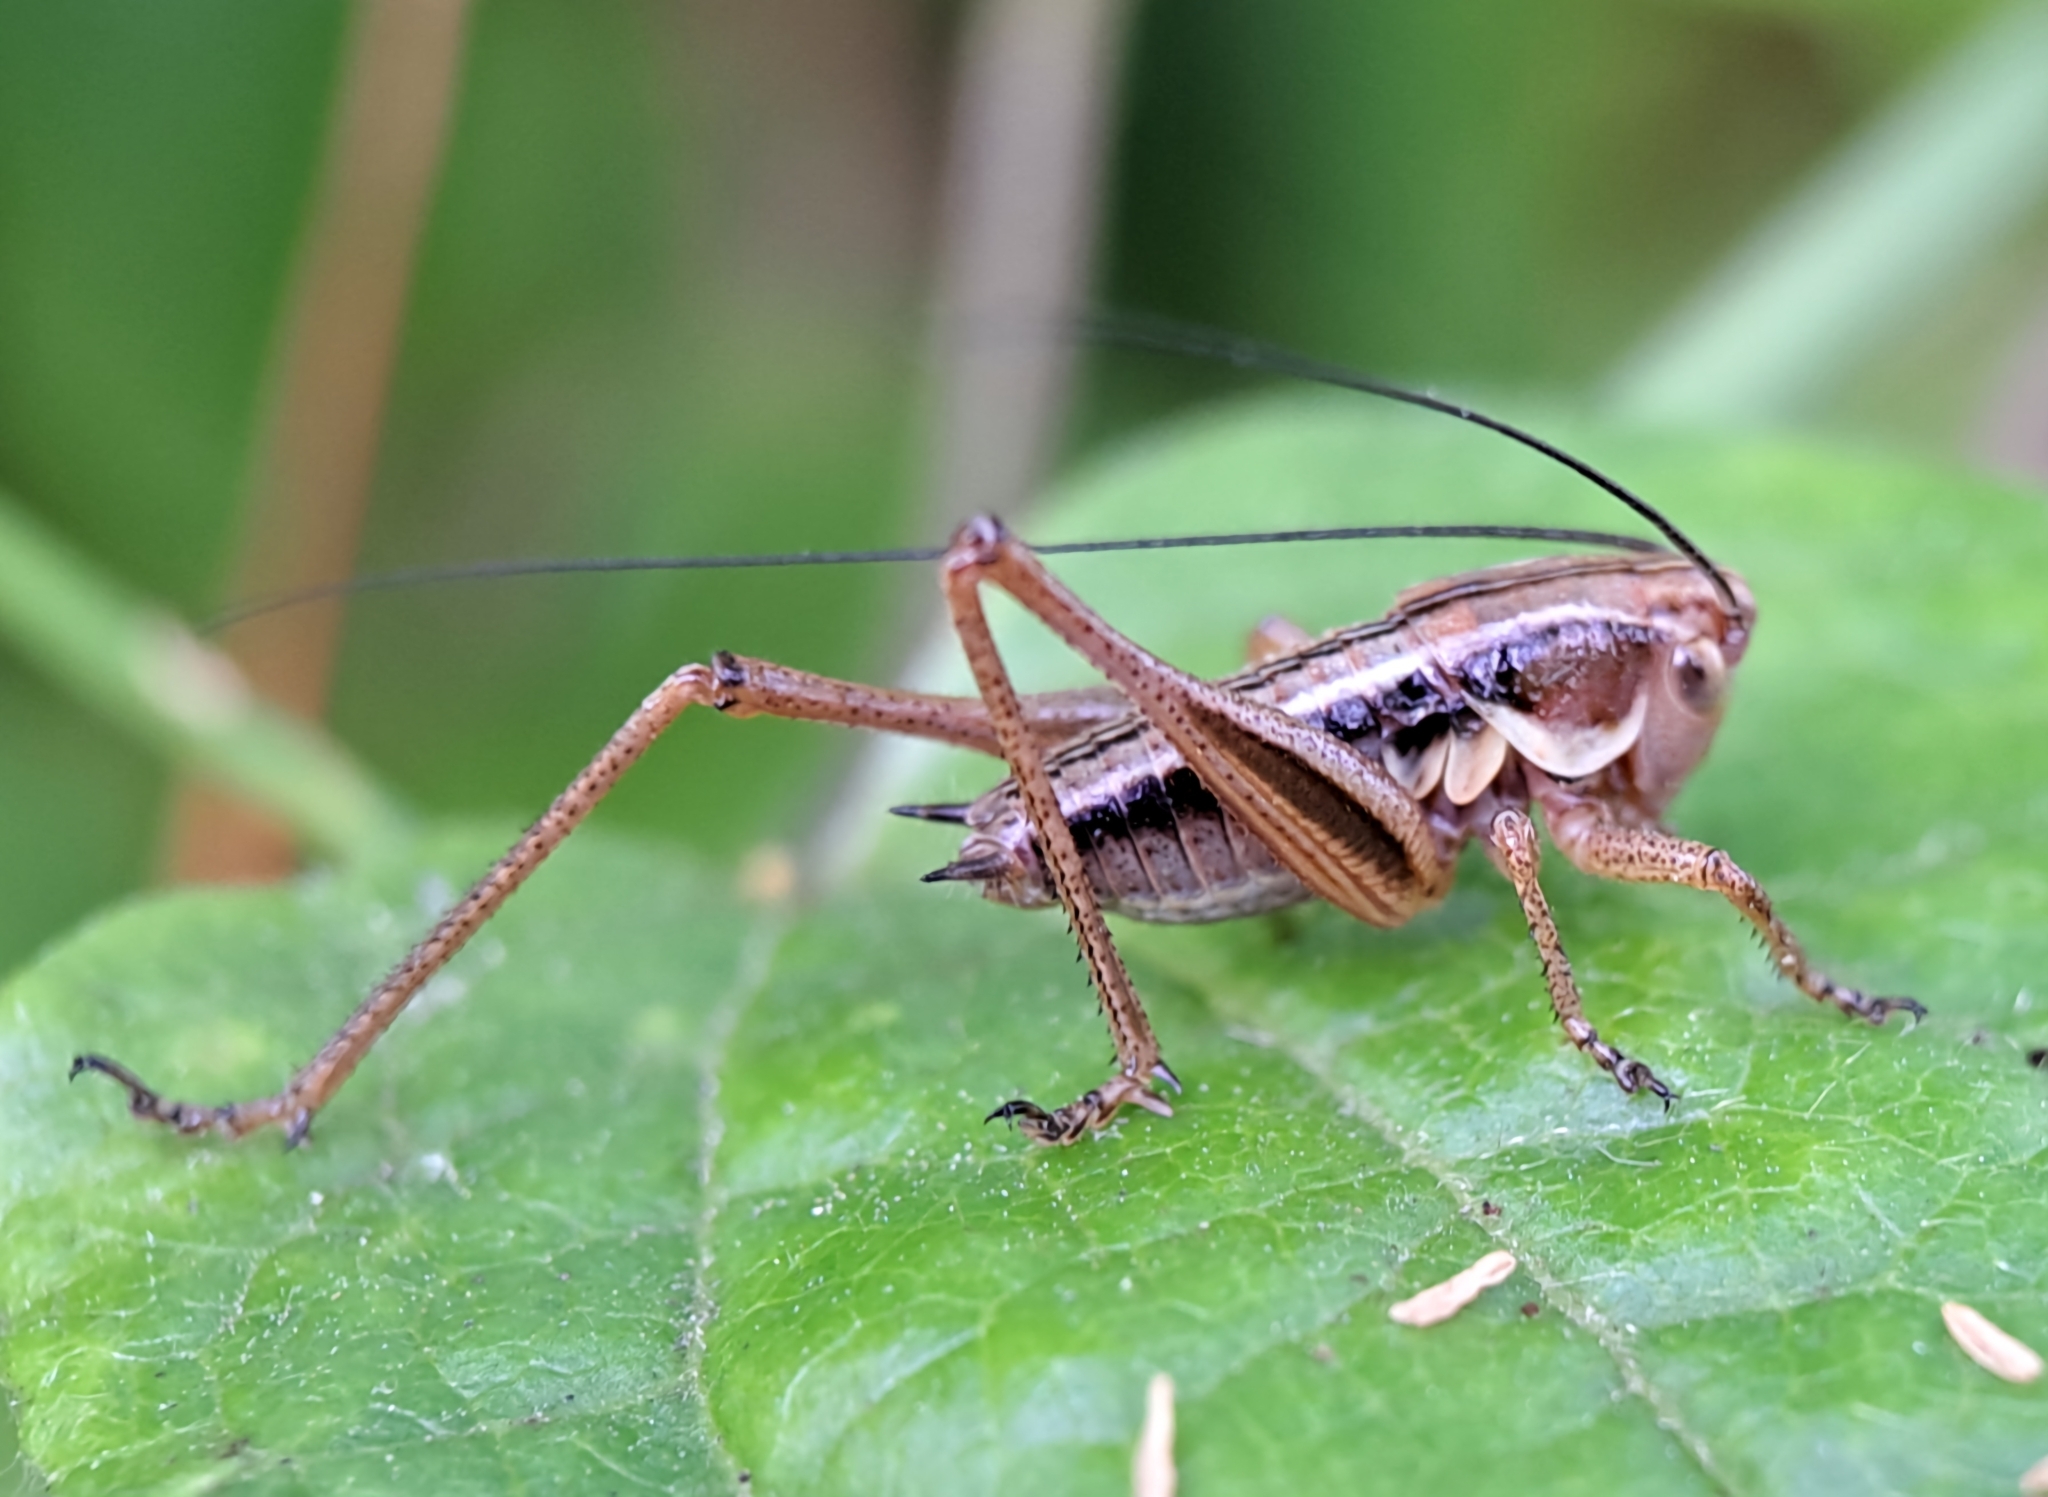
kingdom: Animalia
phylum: Arthropoda
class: Insecta
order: Orthoptera
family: Tettigoniidae
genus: Roeseliana
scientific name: Roeseliana roeselii
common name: Roesel's bush cricket
